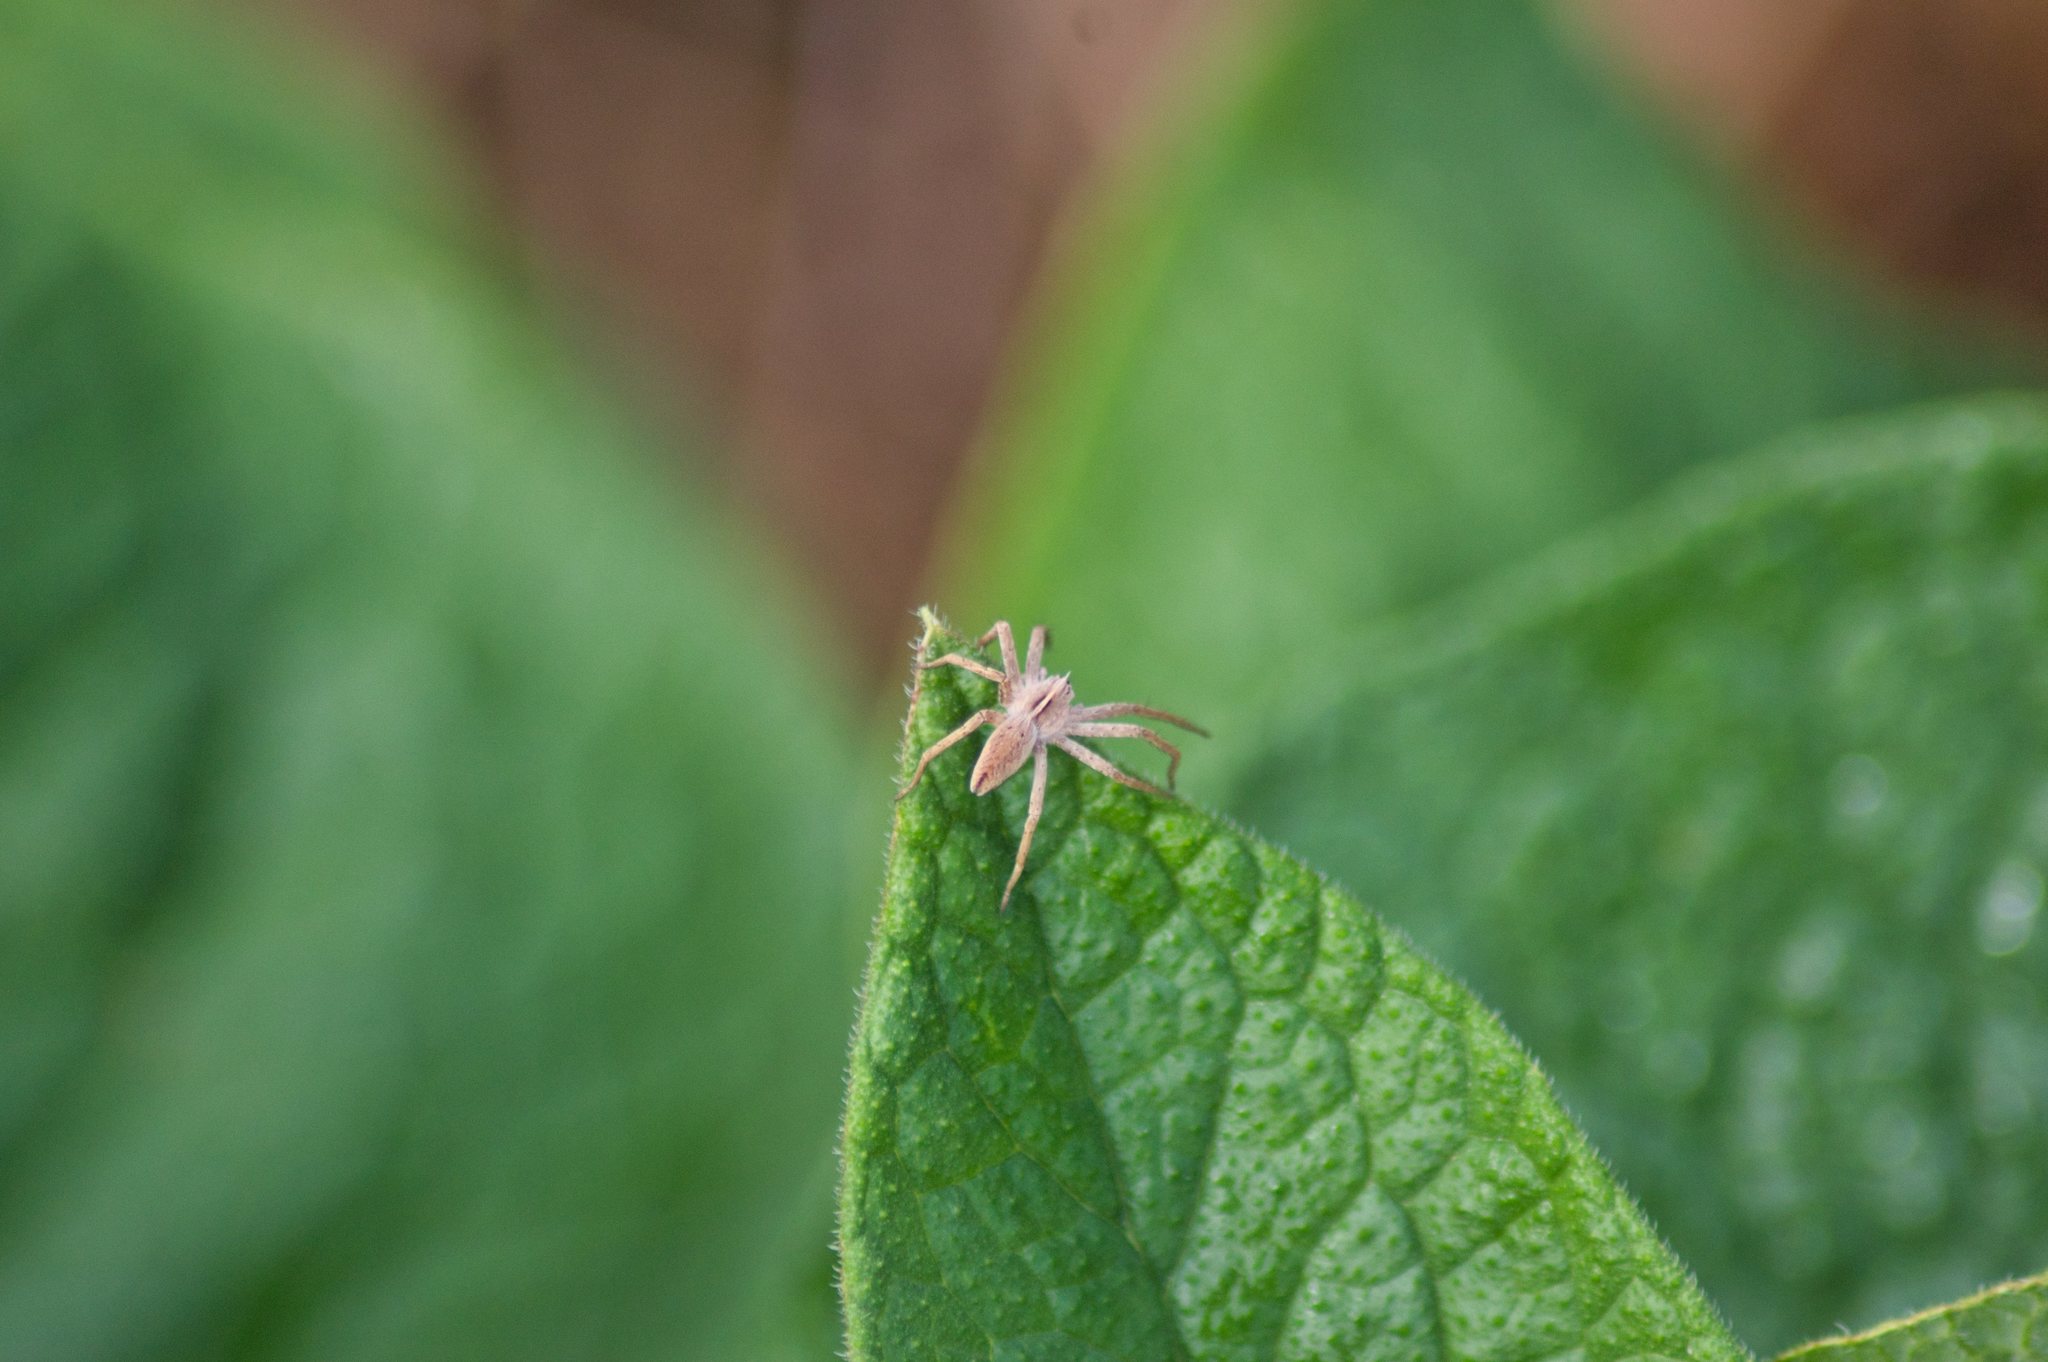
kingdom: Animalia
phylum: Arthropoda
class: Arachnida
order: Araneae
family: Pisauridae
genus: Pisaura
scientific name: Pisaura mirabilis
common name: Tent spider
